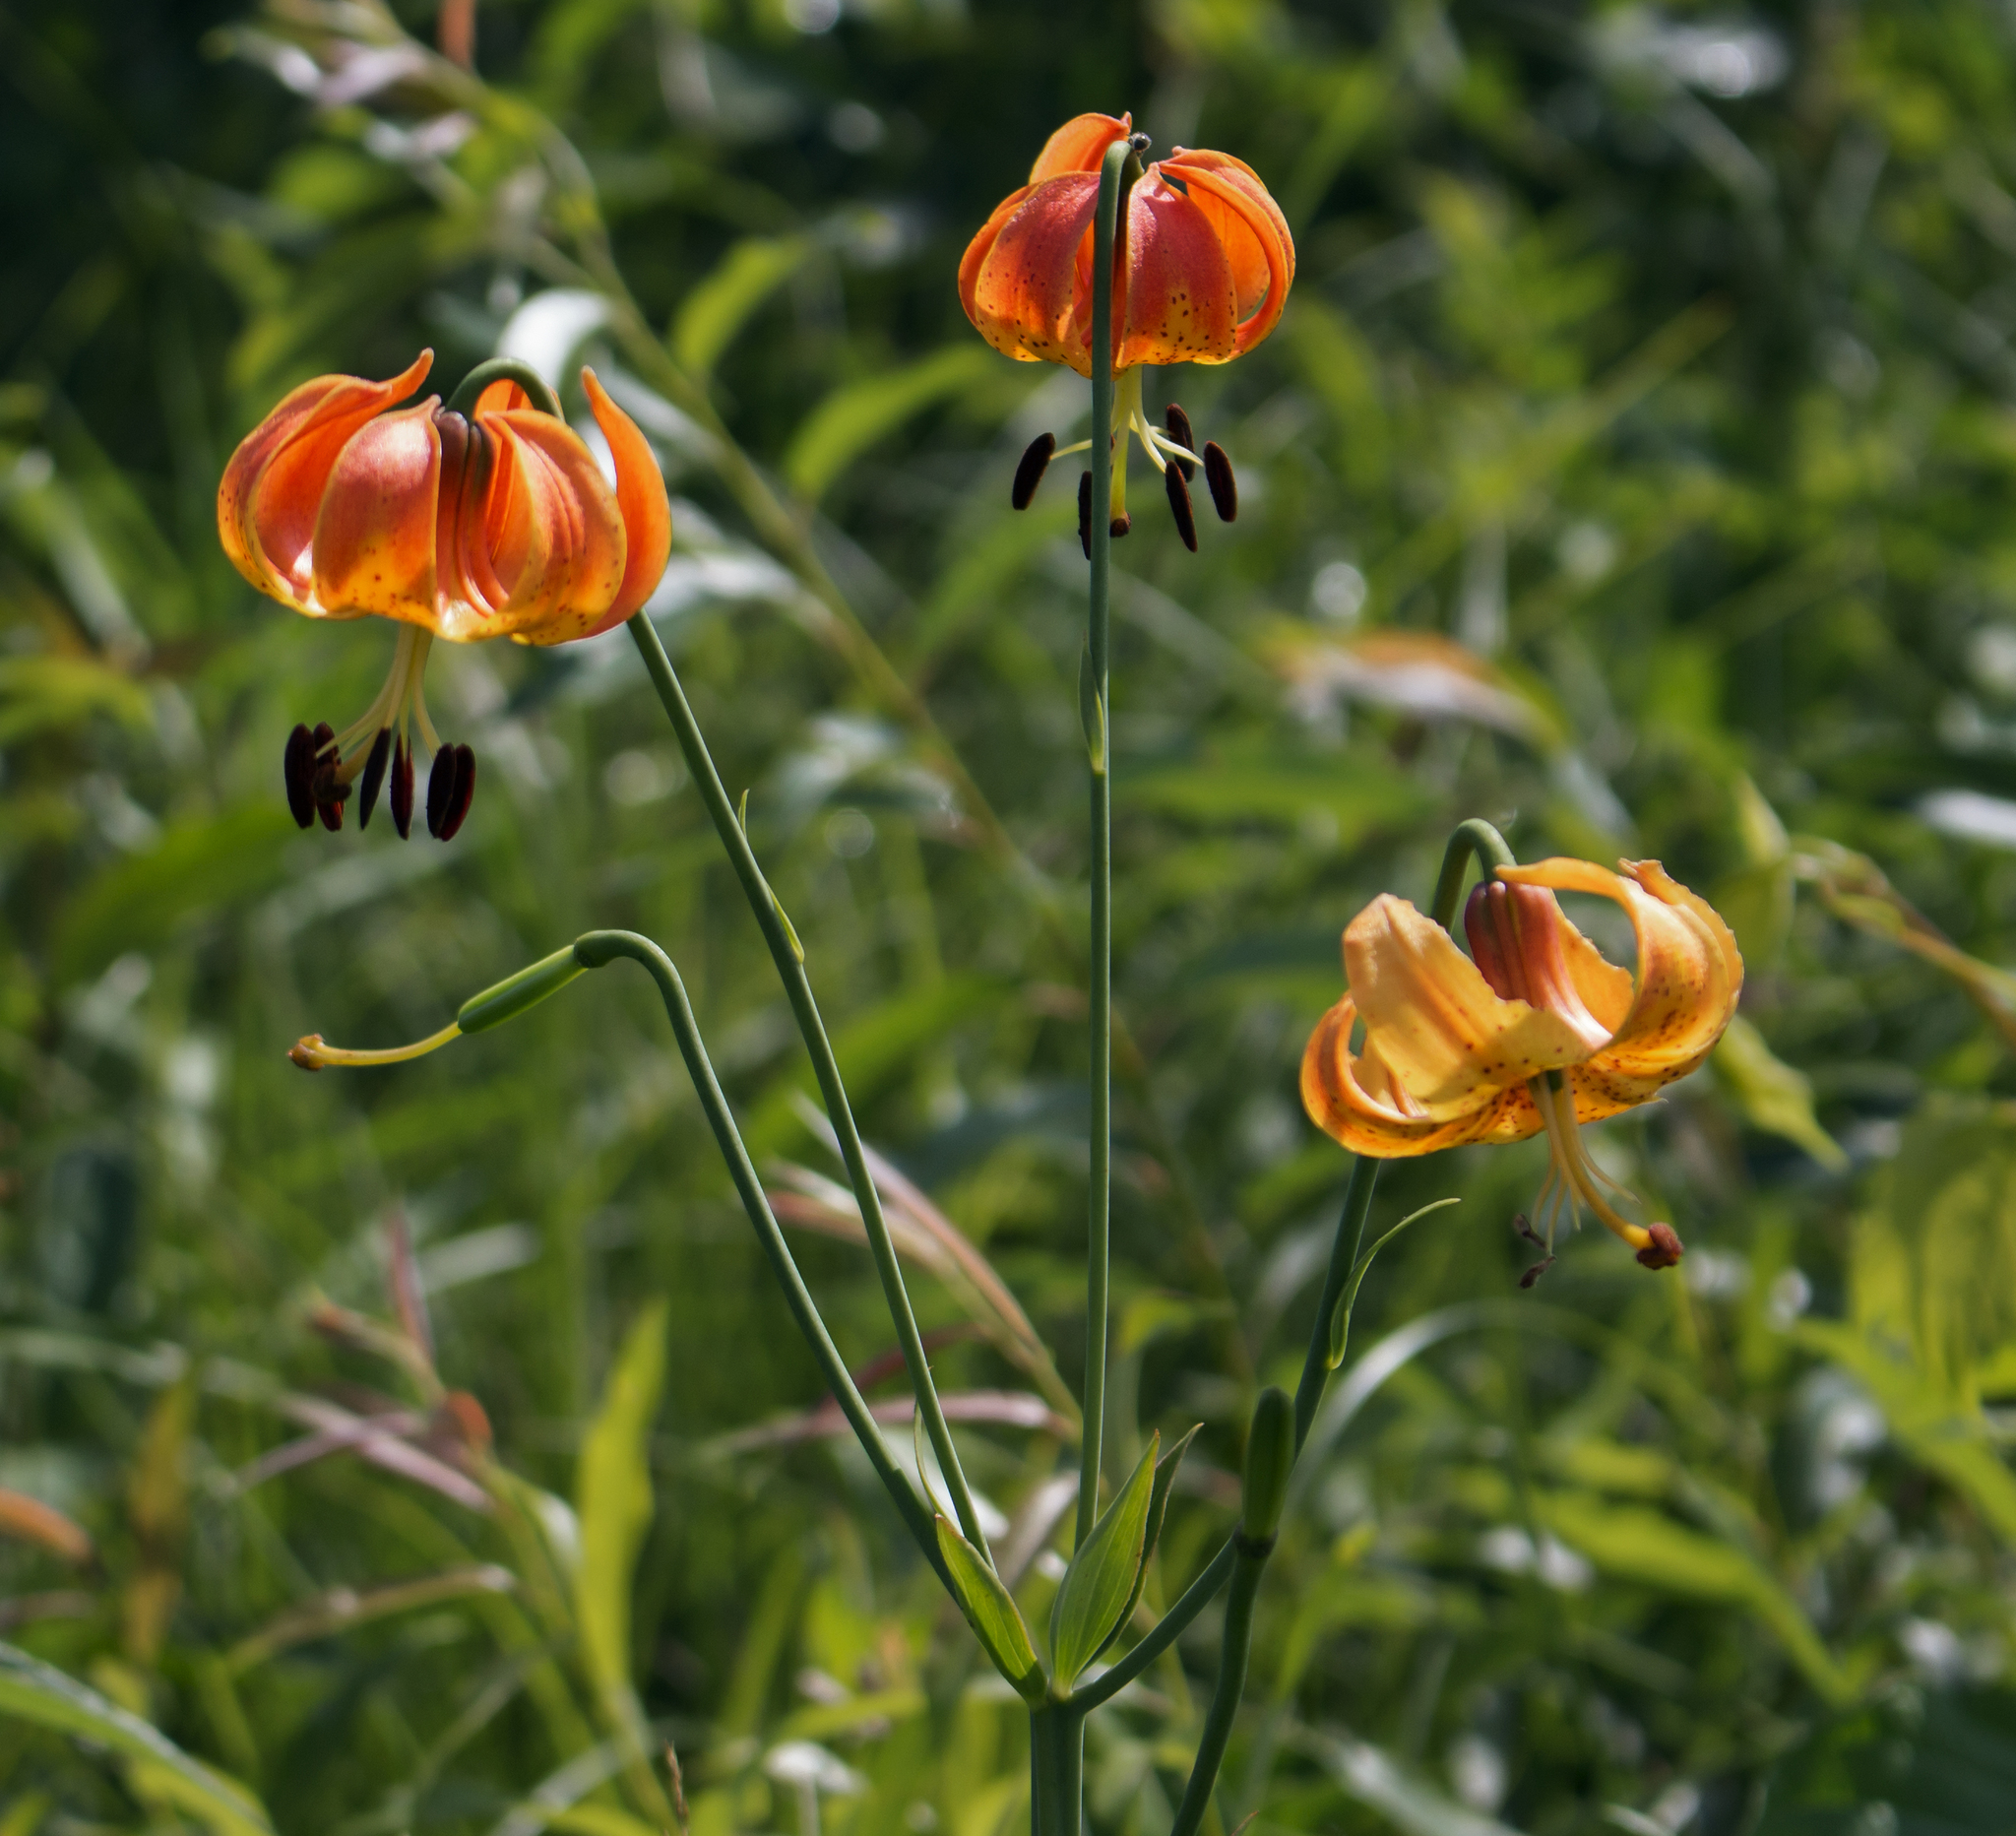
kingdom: Plantae
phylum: Tracheophyta
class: Liliopsida
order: Liliales
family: Liliaceae
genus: Lilium
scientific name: Lilium michiganense
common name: Michigan lily
